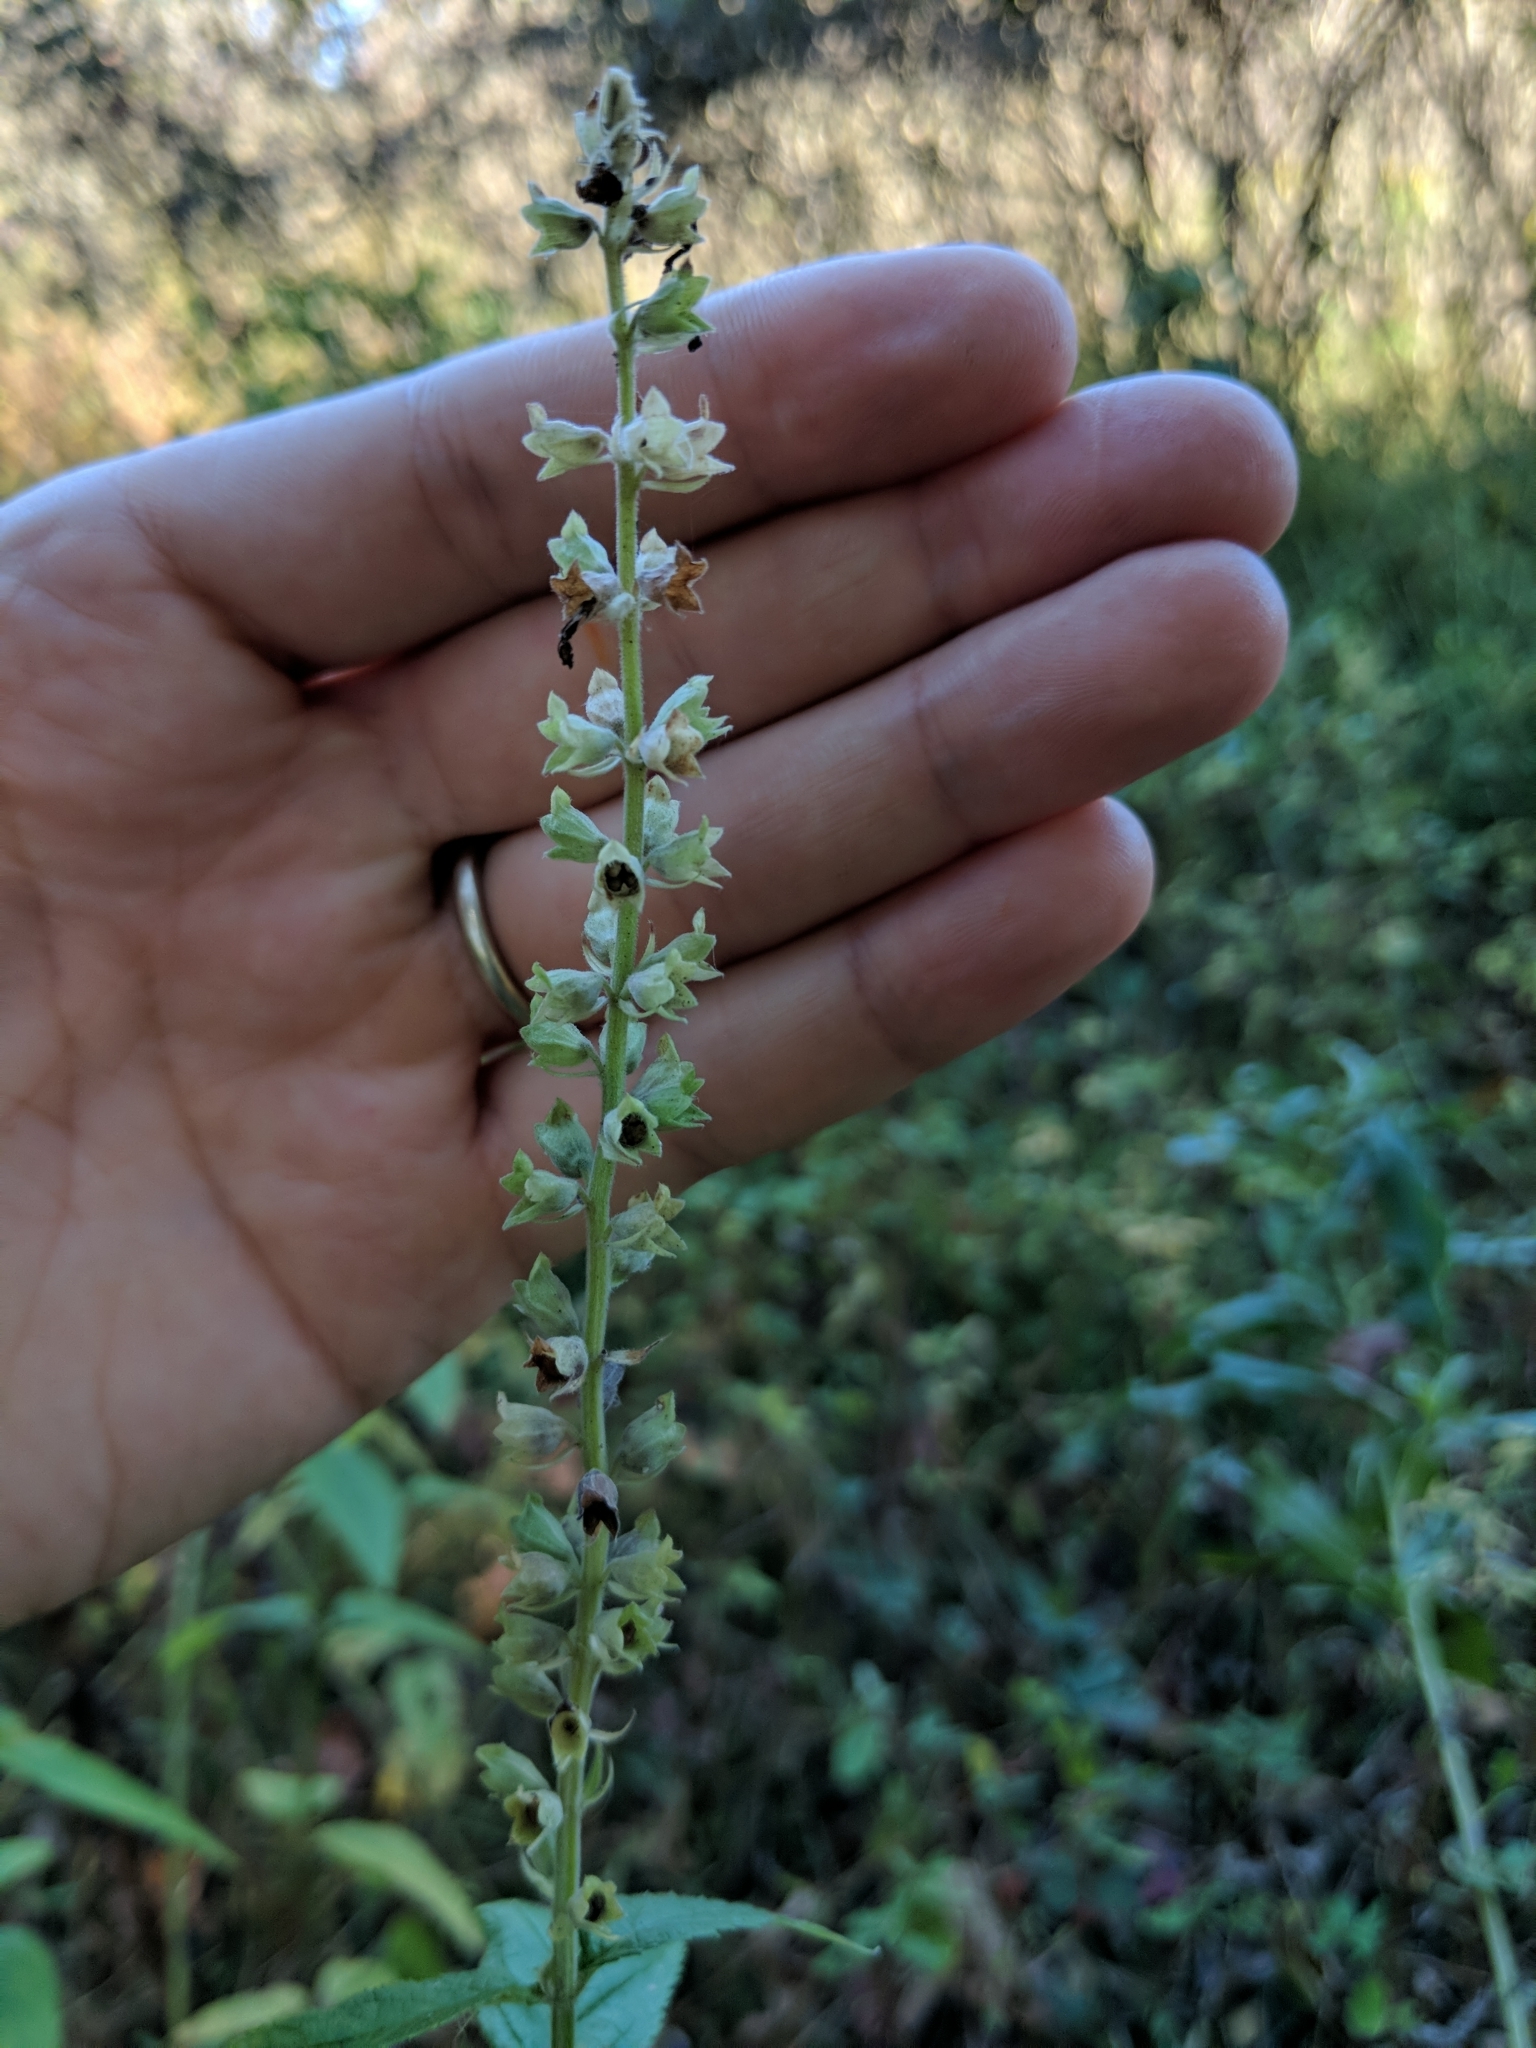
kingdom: Plantae
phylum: Tracheophyta
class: Magnoliopsida
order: Lamiales
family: Lamiaceae
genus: Teucrium
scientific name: Teucrium canadense
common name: American germander
